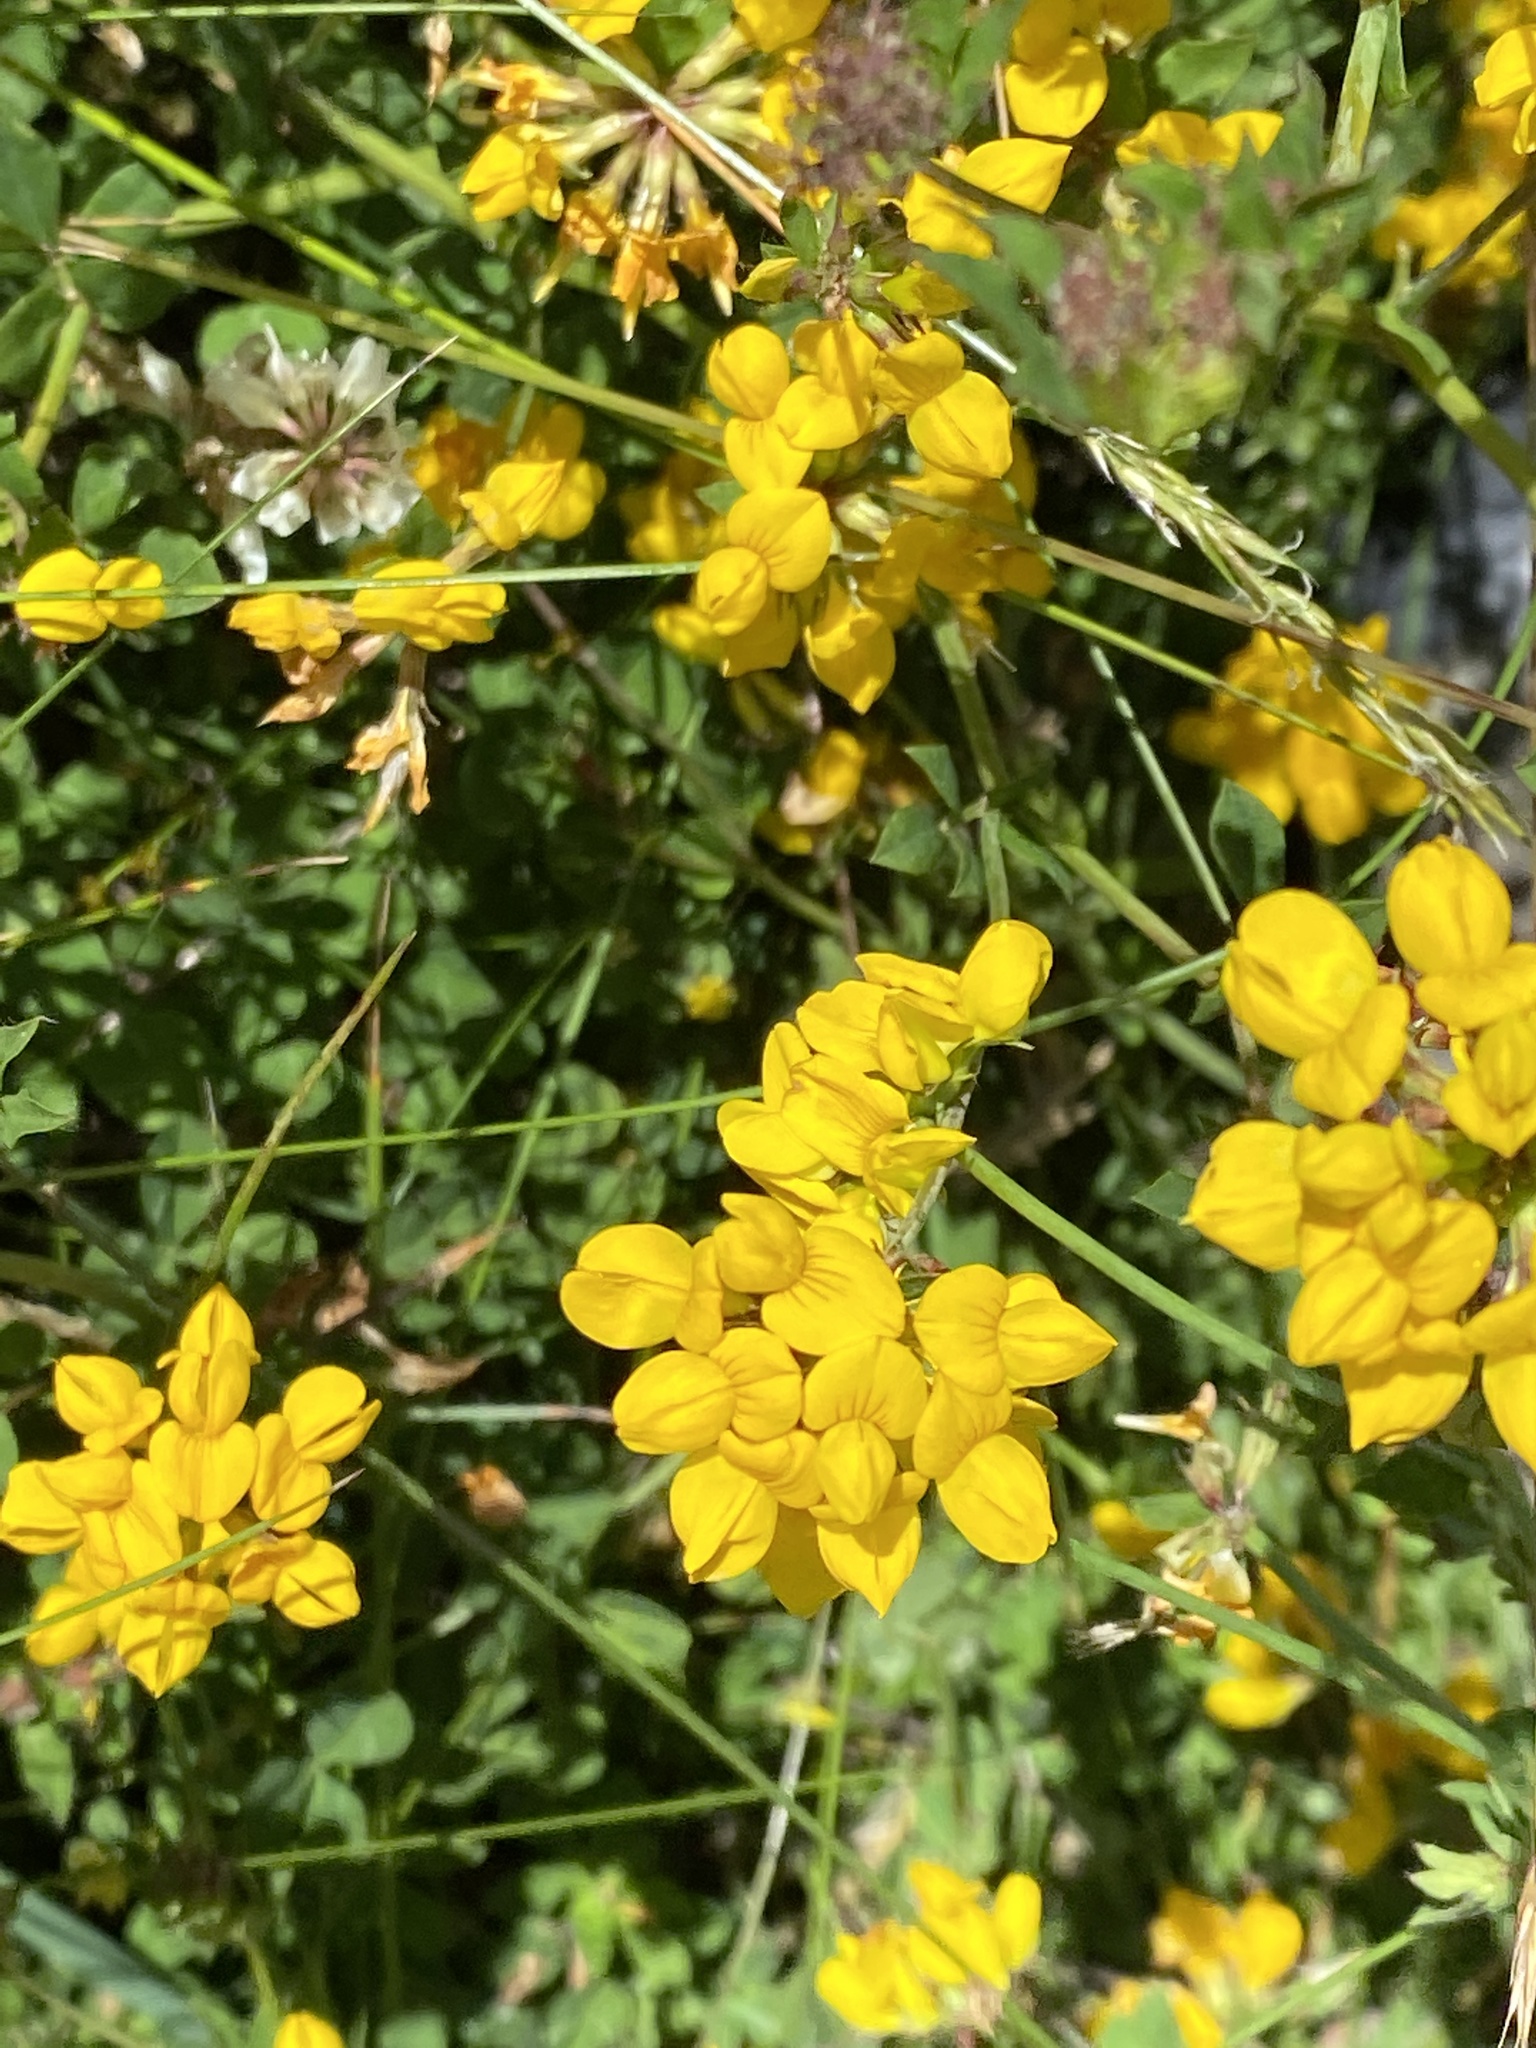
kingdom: Plantae
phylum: Tracheophyta
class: Magnoliopsida
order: Fabales
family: Fabaceae
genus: Lotus
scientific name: Lotus pedunculatus
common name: Greater birdsfoot-trefoil
